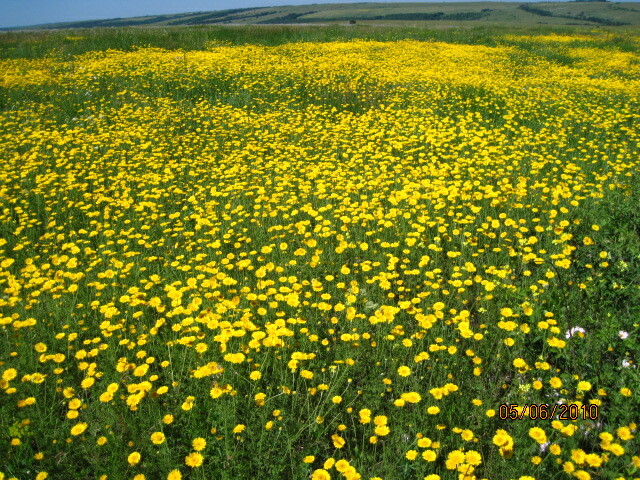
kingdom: Plantae
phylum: Tracheophyta
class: Magnoliopsida
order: Asterales
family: Asteraceae
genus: Cota
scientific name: Cota tinctoria
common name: Golden chamomile
